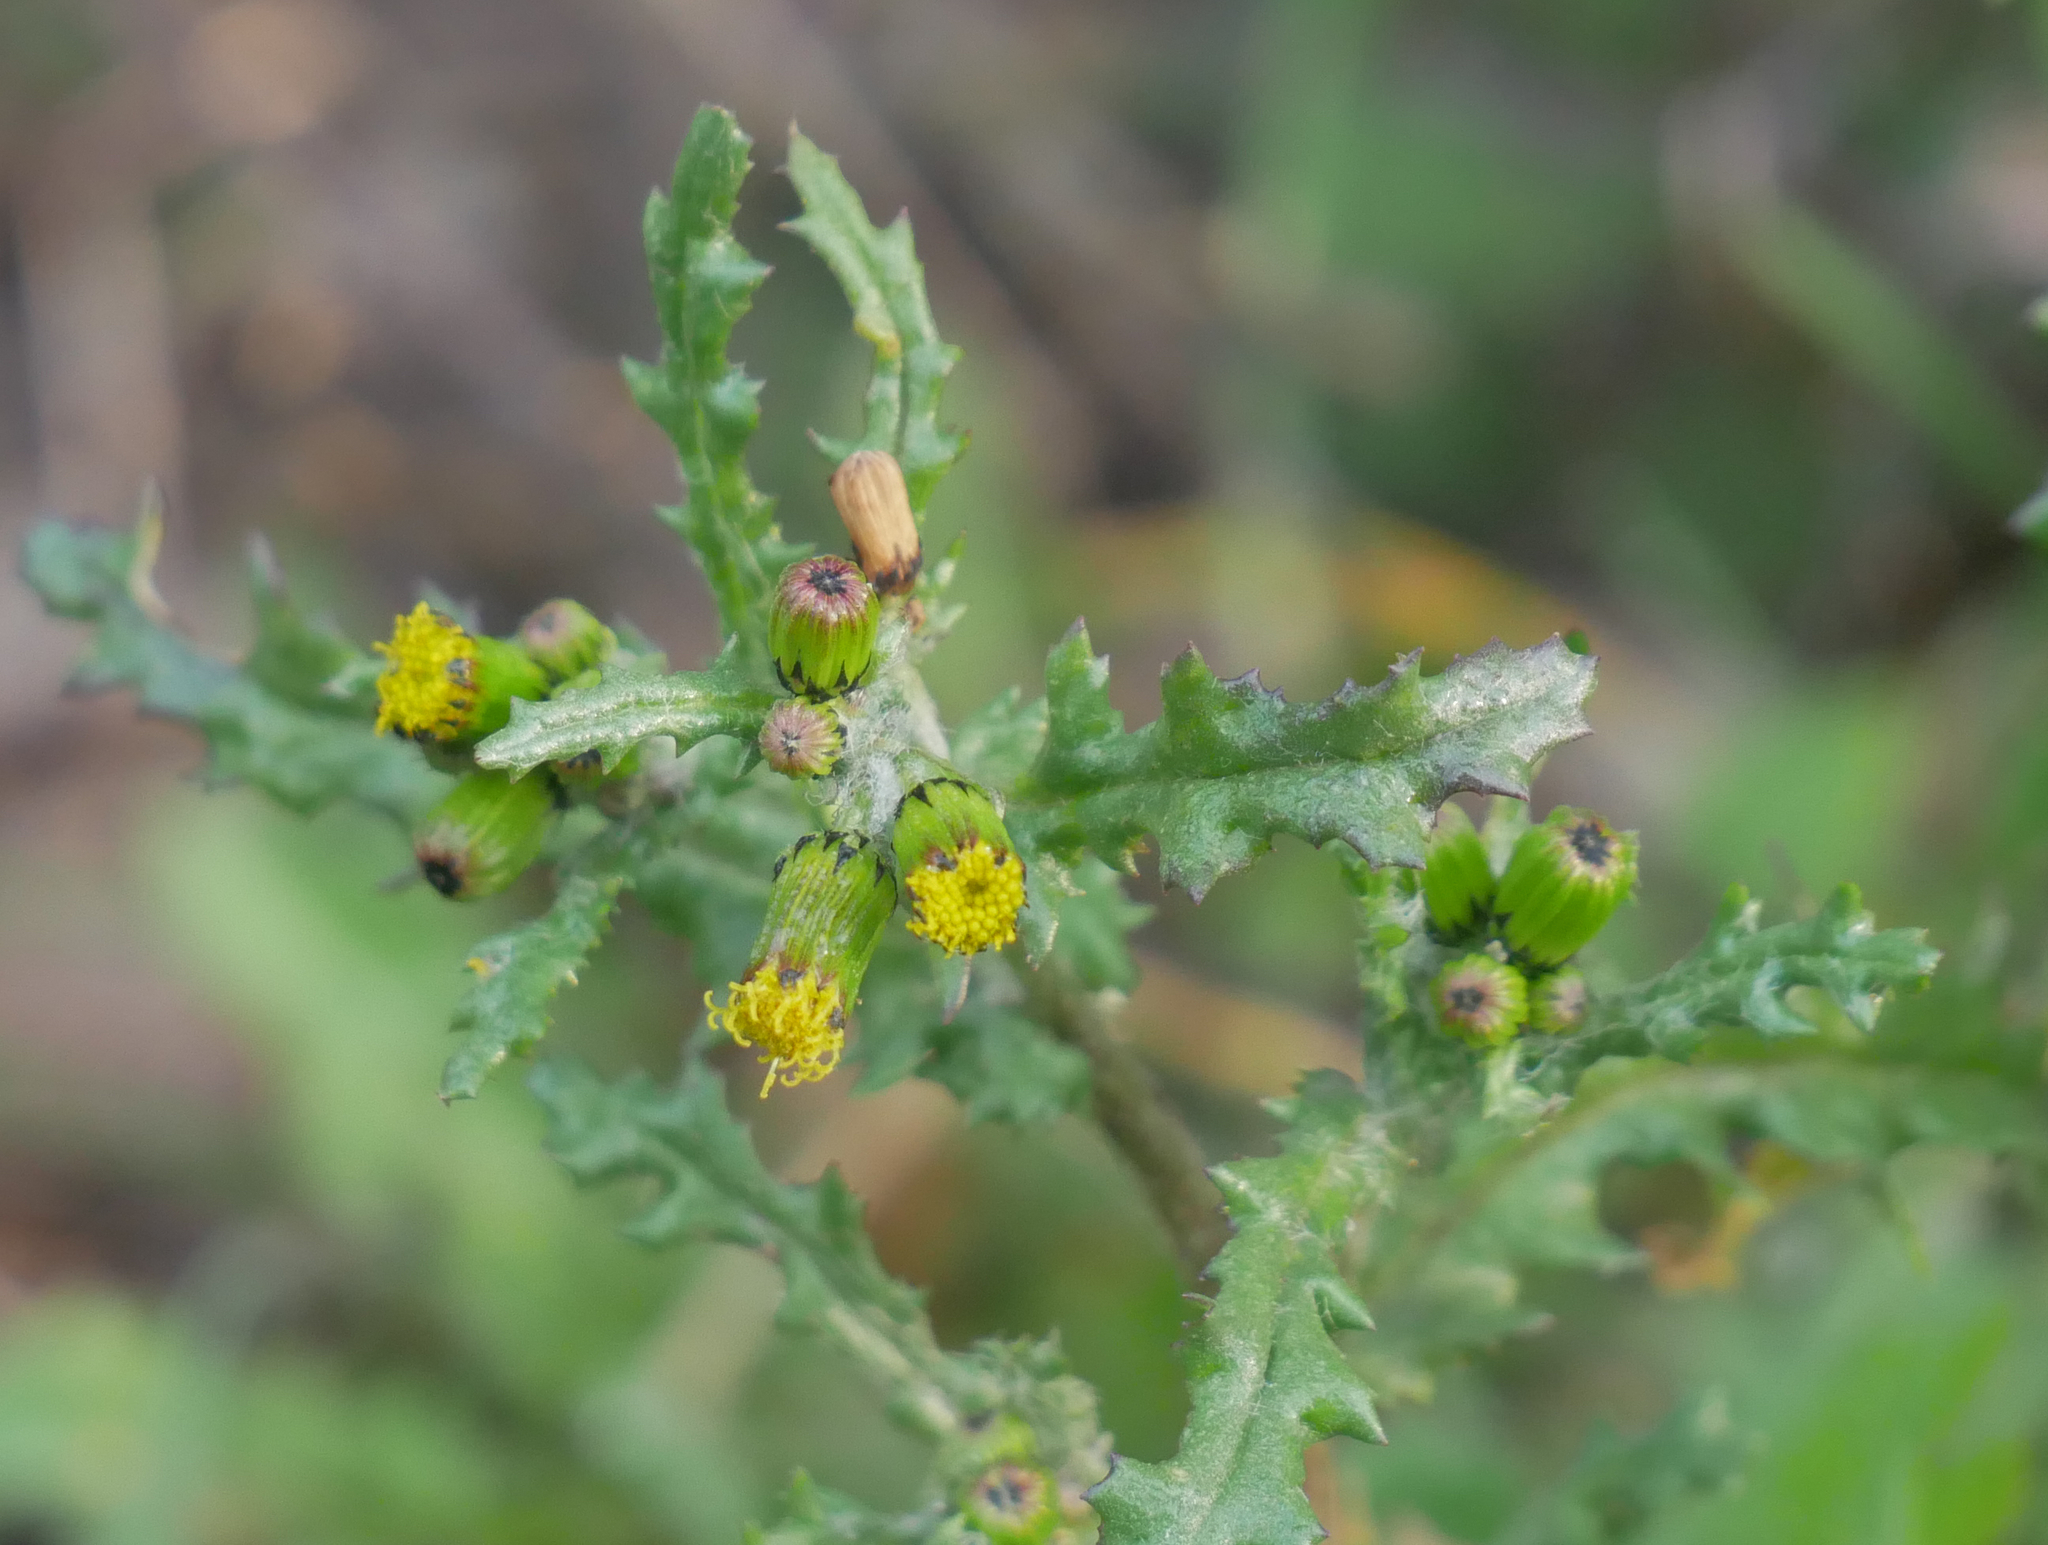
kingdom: Plantae
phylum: Tracheophyta
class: Magnoliopsida
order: Asterales
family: Asteraceae
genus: Senecio
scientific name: Senecio vulgaris
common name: Old-man-in-the-spring
